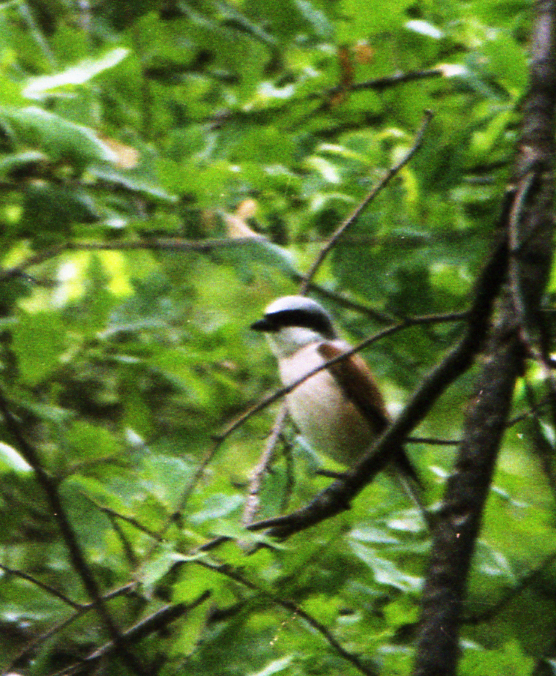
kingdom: Animalia
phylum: Chordata
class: Aves
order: Passeriformes
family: Laniidae
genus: Lanius
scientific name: Lanius collurio
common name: Red-backed shrike
